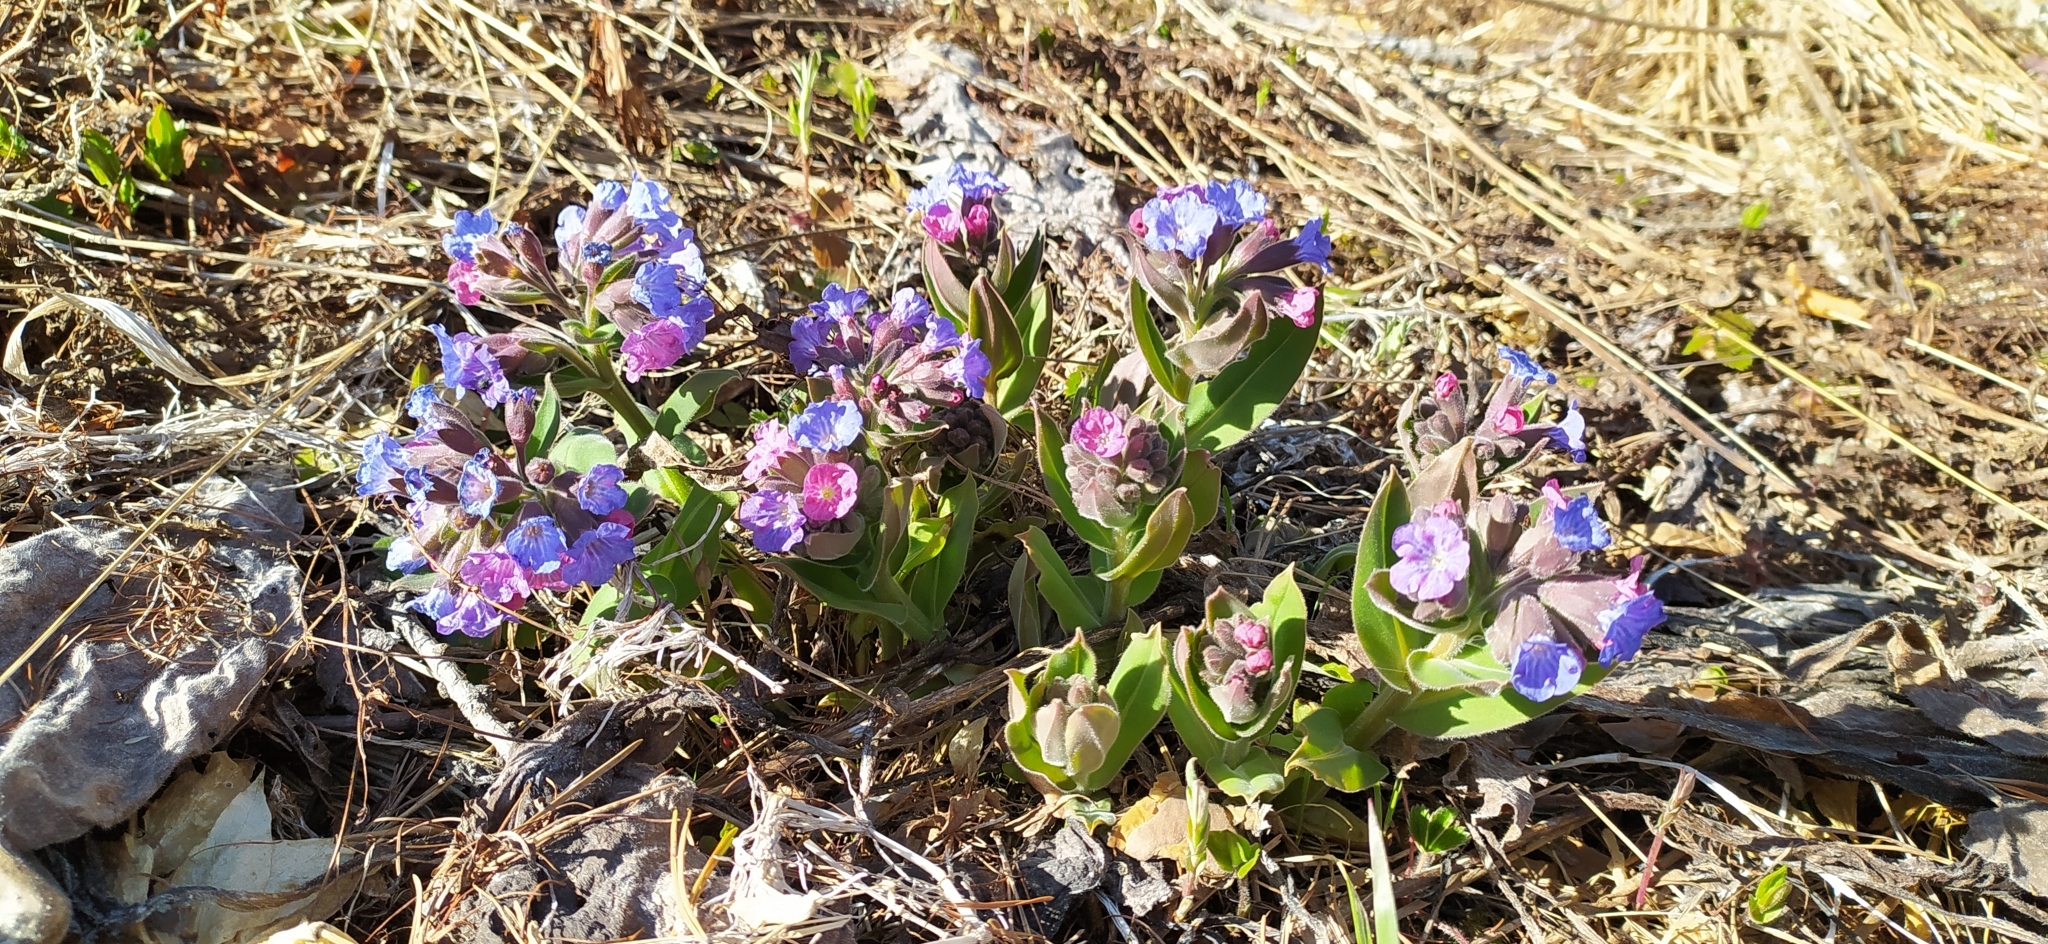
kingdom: Plantae
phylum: Tracheophyta
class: Magnoliopsida
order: Boraginales
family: Boraginaceae
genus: Pulmonaria
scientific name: Pulmonaria mollis
